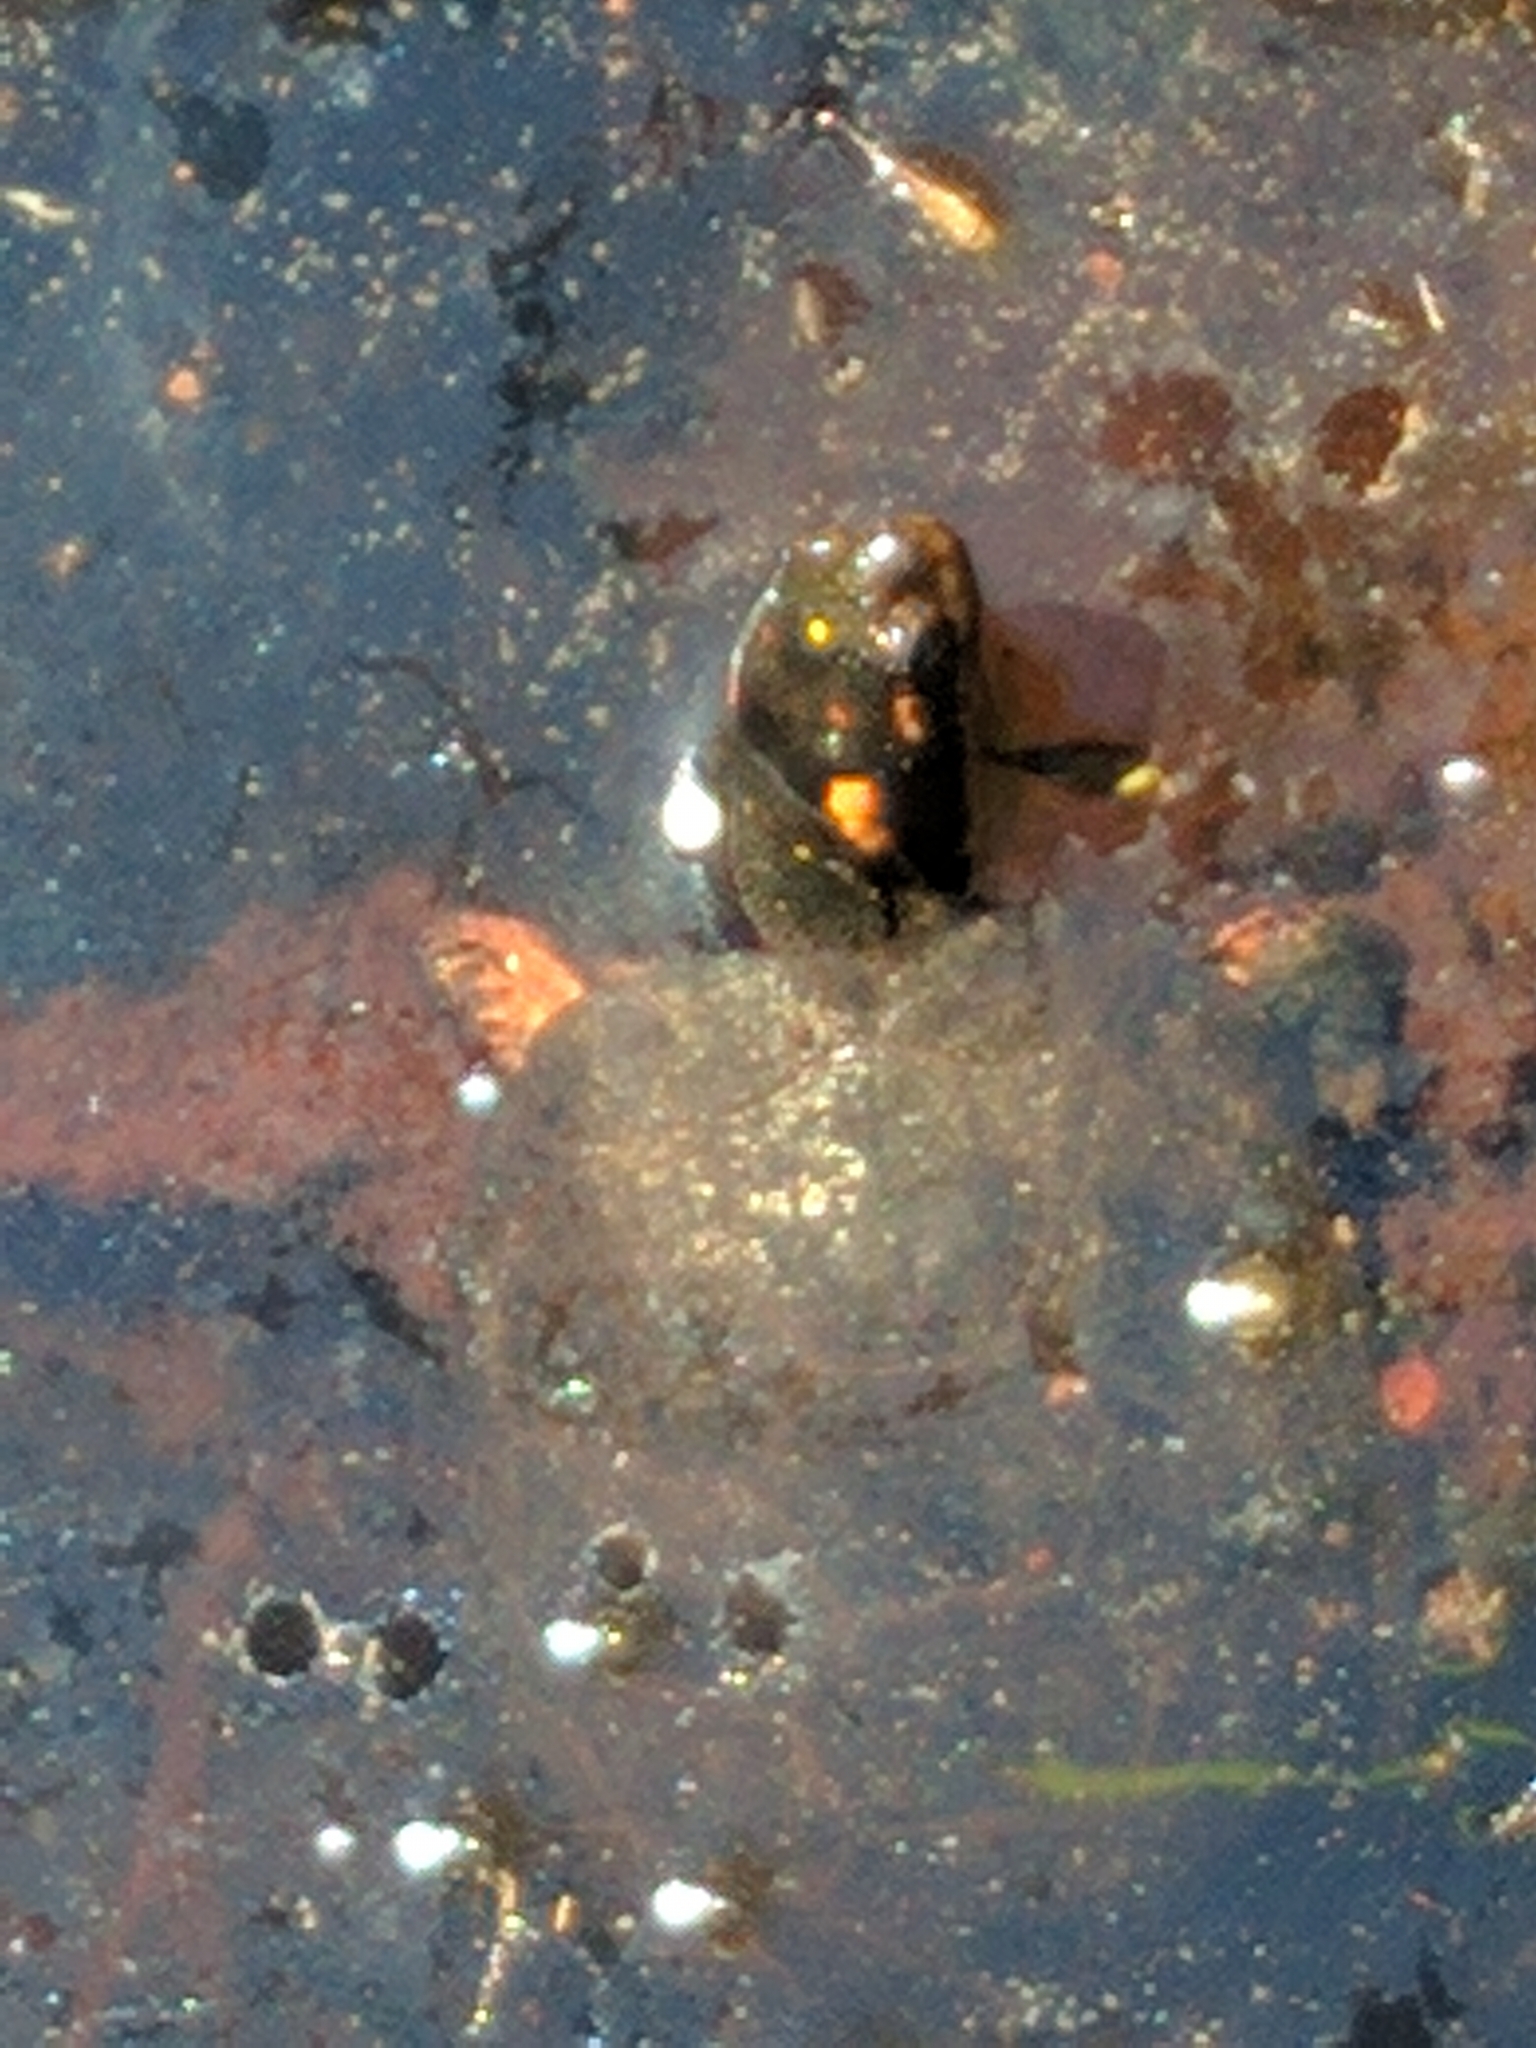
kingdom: Animalia
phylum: Chordata
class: Testudines
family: Emydidae
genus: Clemmys
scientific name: Clemmys guttata
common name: Spotted turtle
